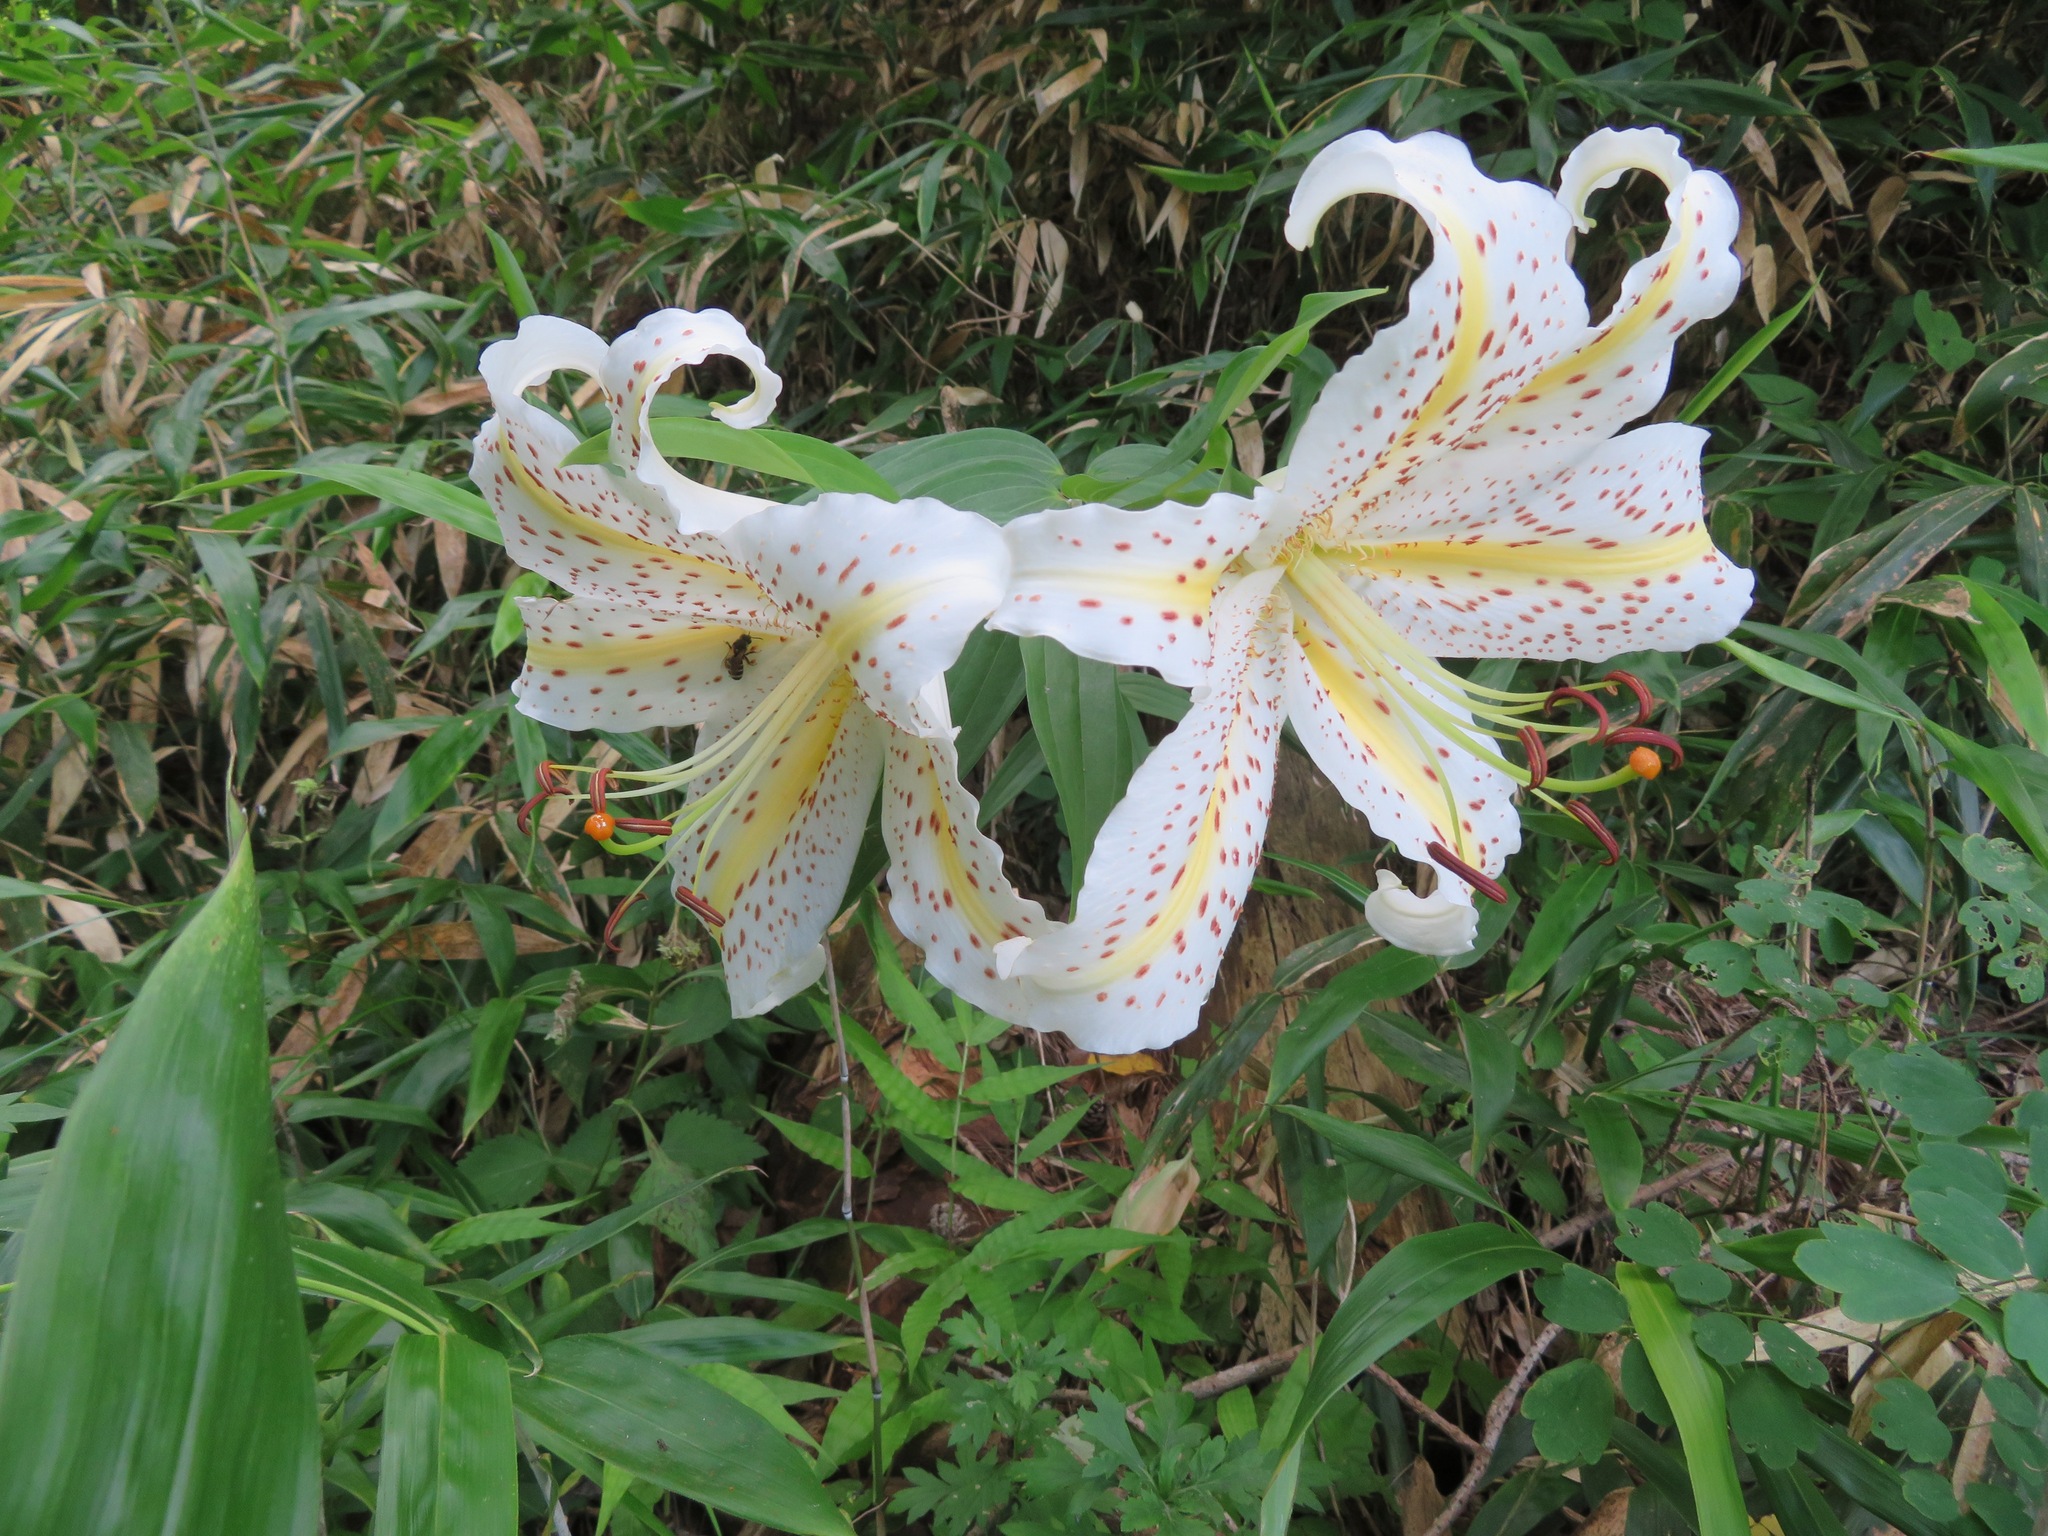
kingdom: Plantae
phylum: Tracheophyta
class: Liliopsida
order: Liliales
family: Liliaceae
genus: Lilium
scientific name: Lilium auratum
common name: Golden-ray lily
